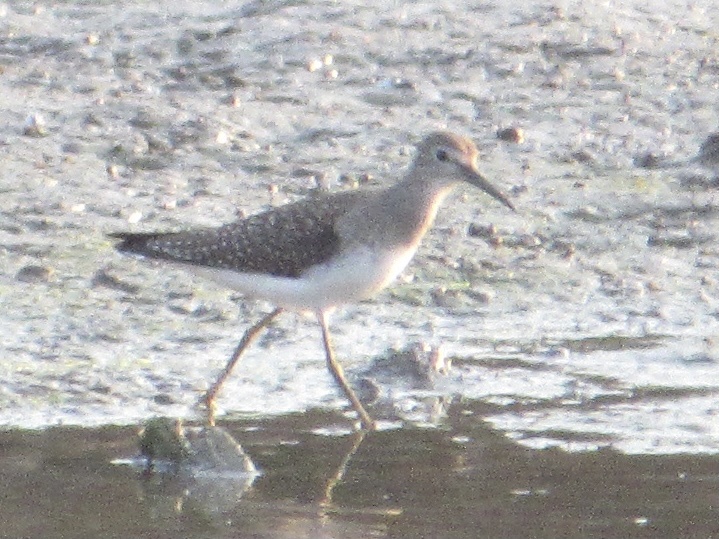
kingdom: Animalia
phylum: Chordata
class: Aves
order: Charadriiformes
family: Scolopacidae
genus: Tringa
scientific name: Tringa solitaria
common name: Solitary sandpiper
